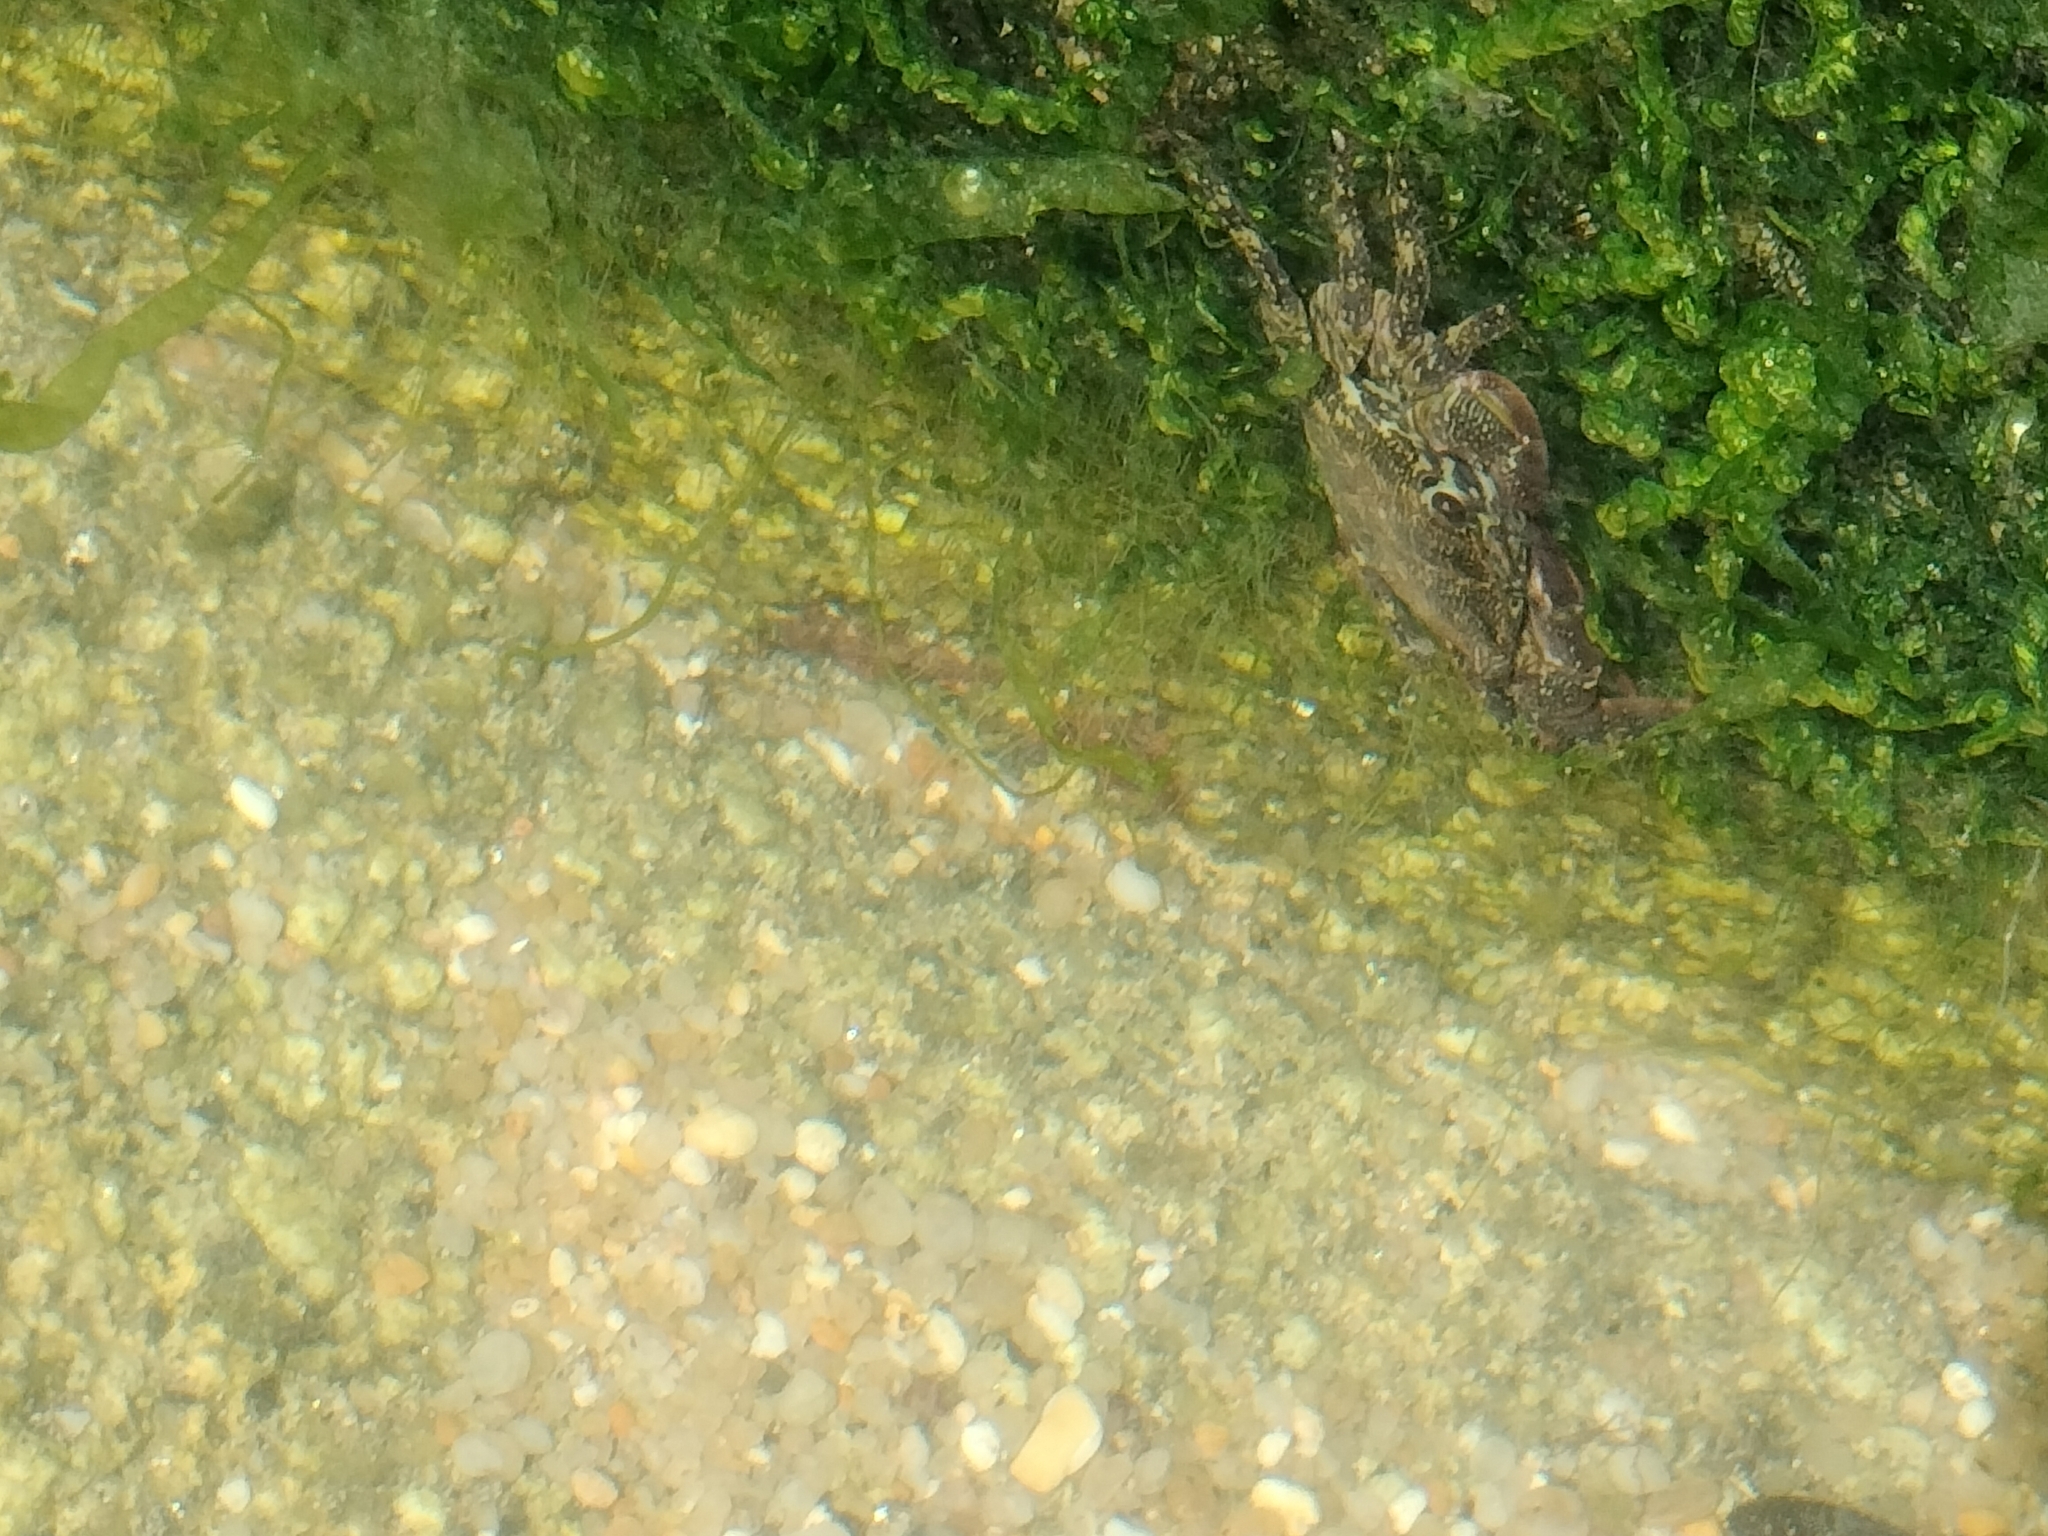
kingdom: Animalia
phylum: Arthropoda
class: Malacostraca
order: Decapoda
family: Grapsidae
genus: Pachygrapsus
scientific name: Pachygrapsus marmoratus
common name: Marbled rock crab
